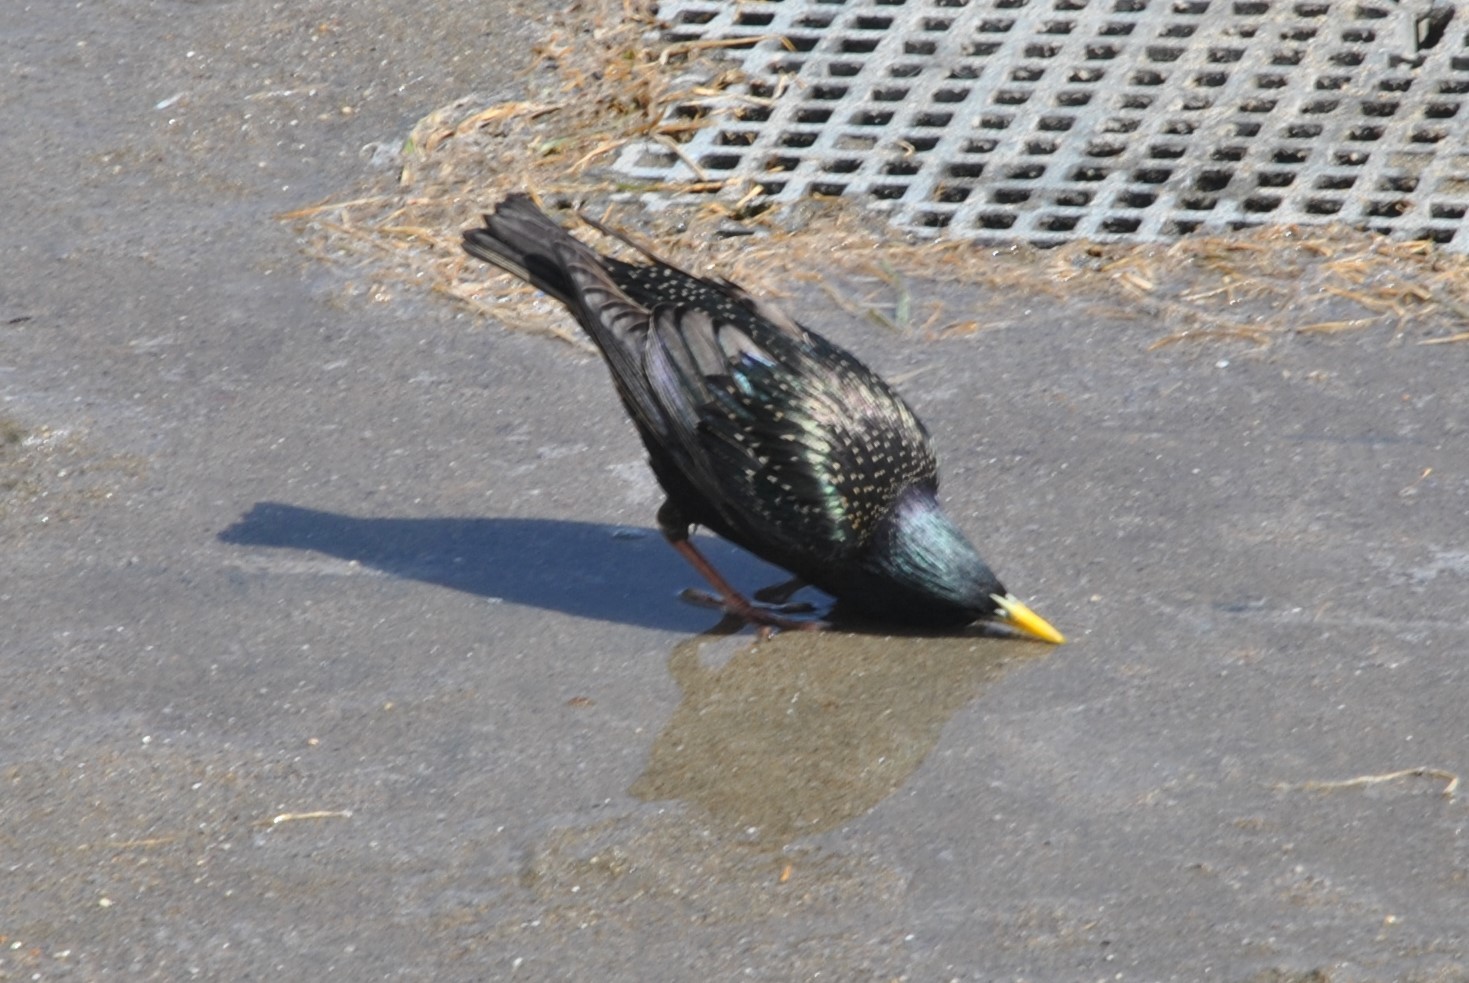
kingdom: Animalia
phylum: Chordata
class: Aves
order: Passeriformes
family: Sturnidae
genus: Sturnus
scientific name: Sturnus vulgaris
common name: Common starling
